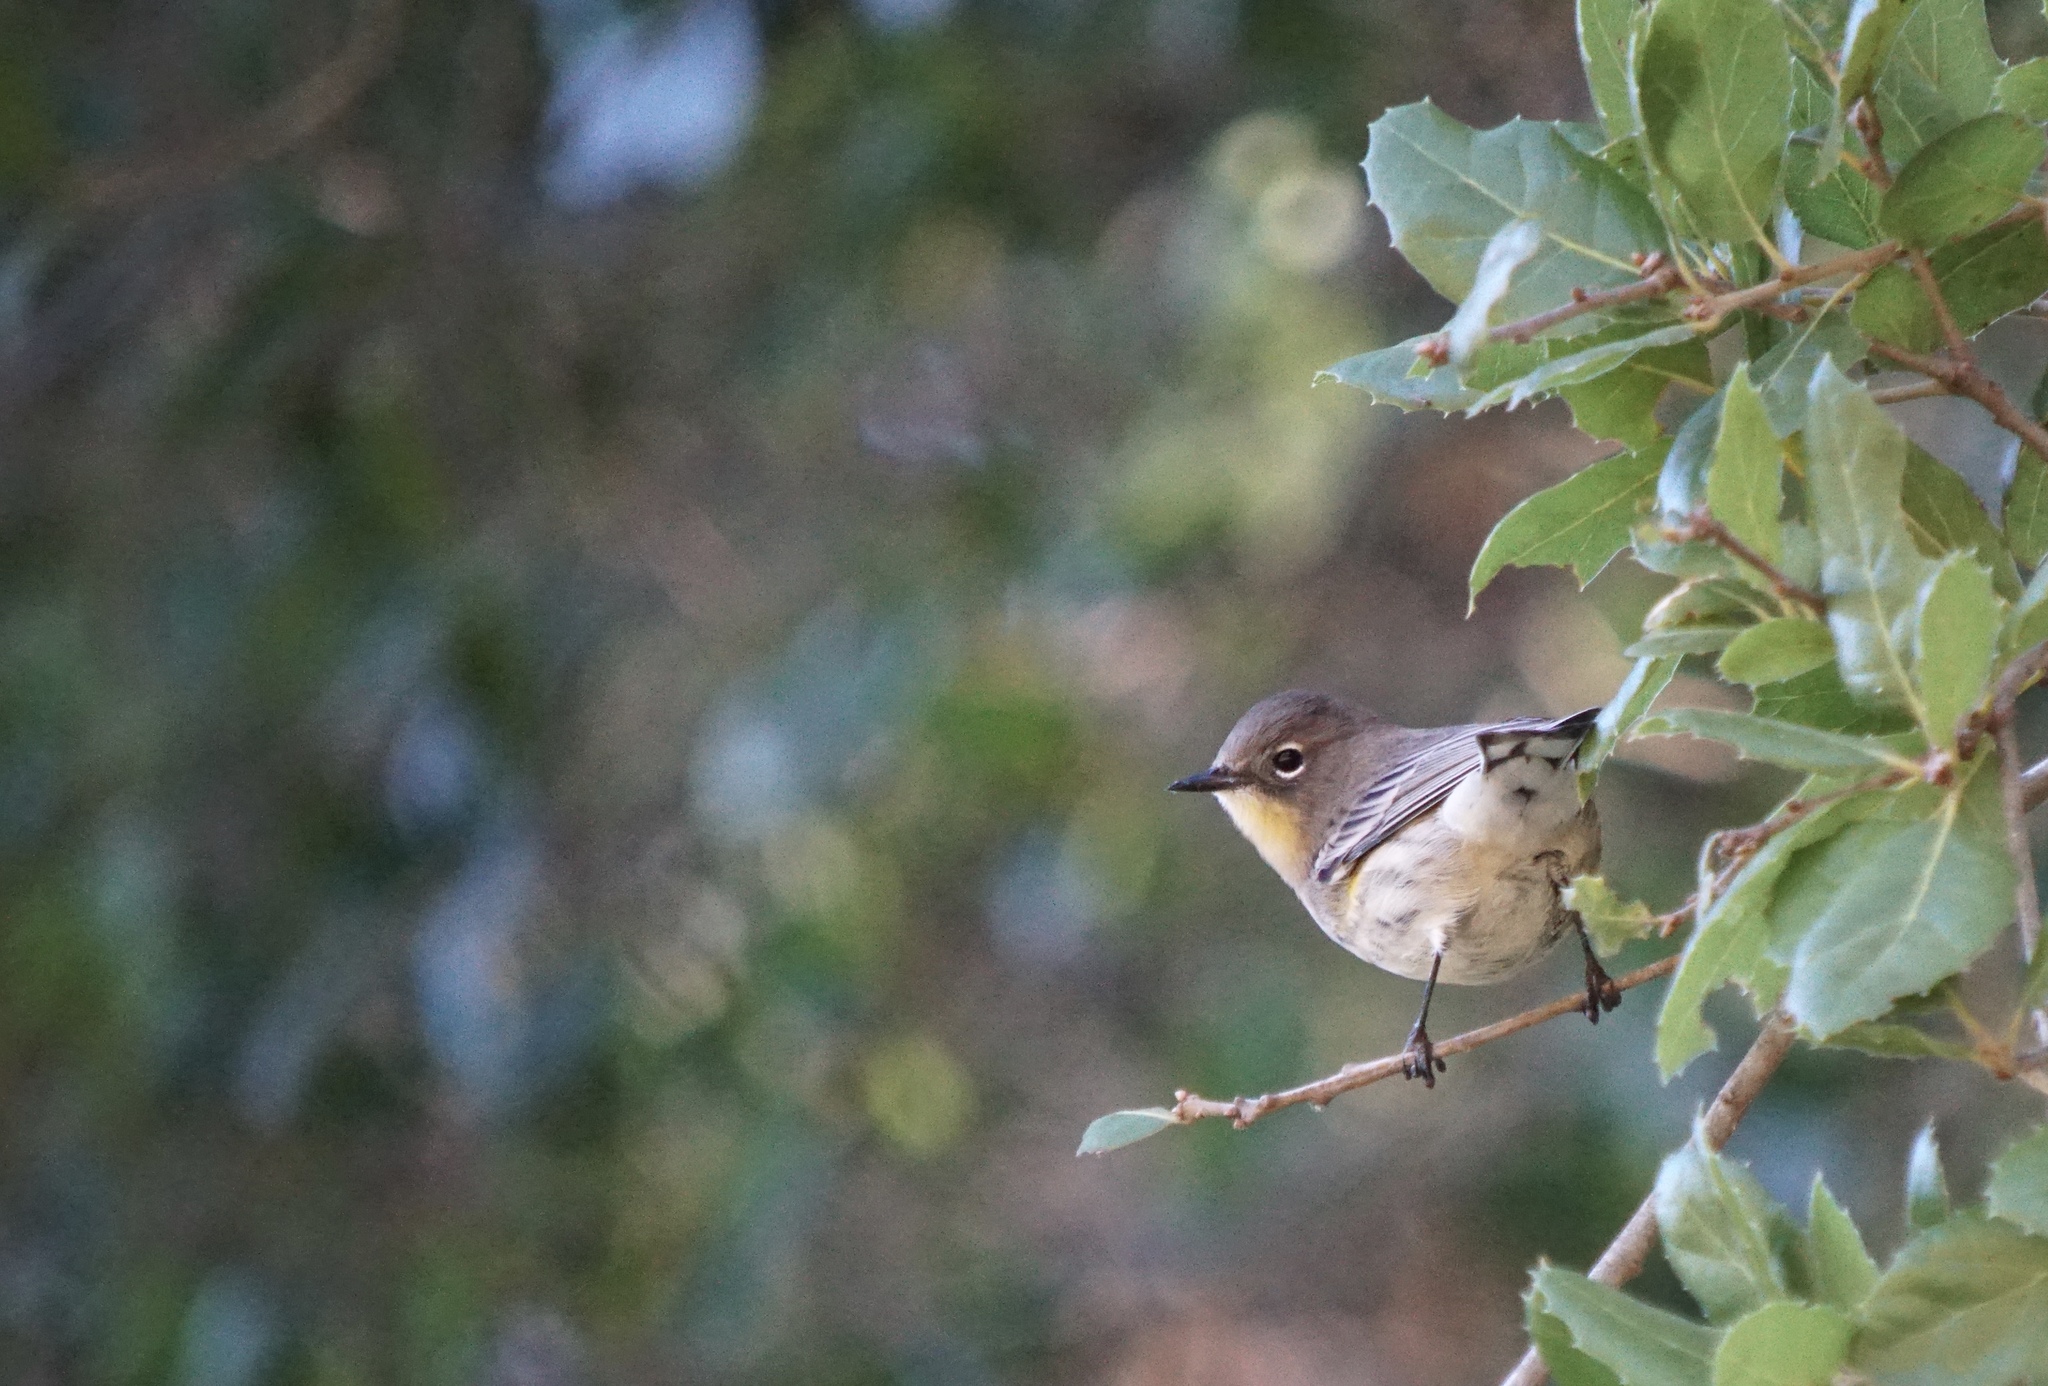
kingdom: Animalia
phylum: Chordata
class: Aves
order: Passeriformes
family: Parulidae
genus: Setophaga
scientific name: Setophaga coronata
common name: Myrtle warbler
